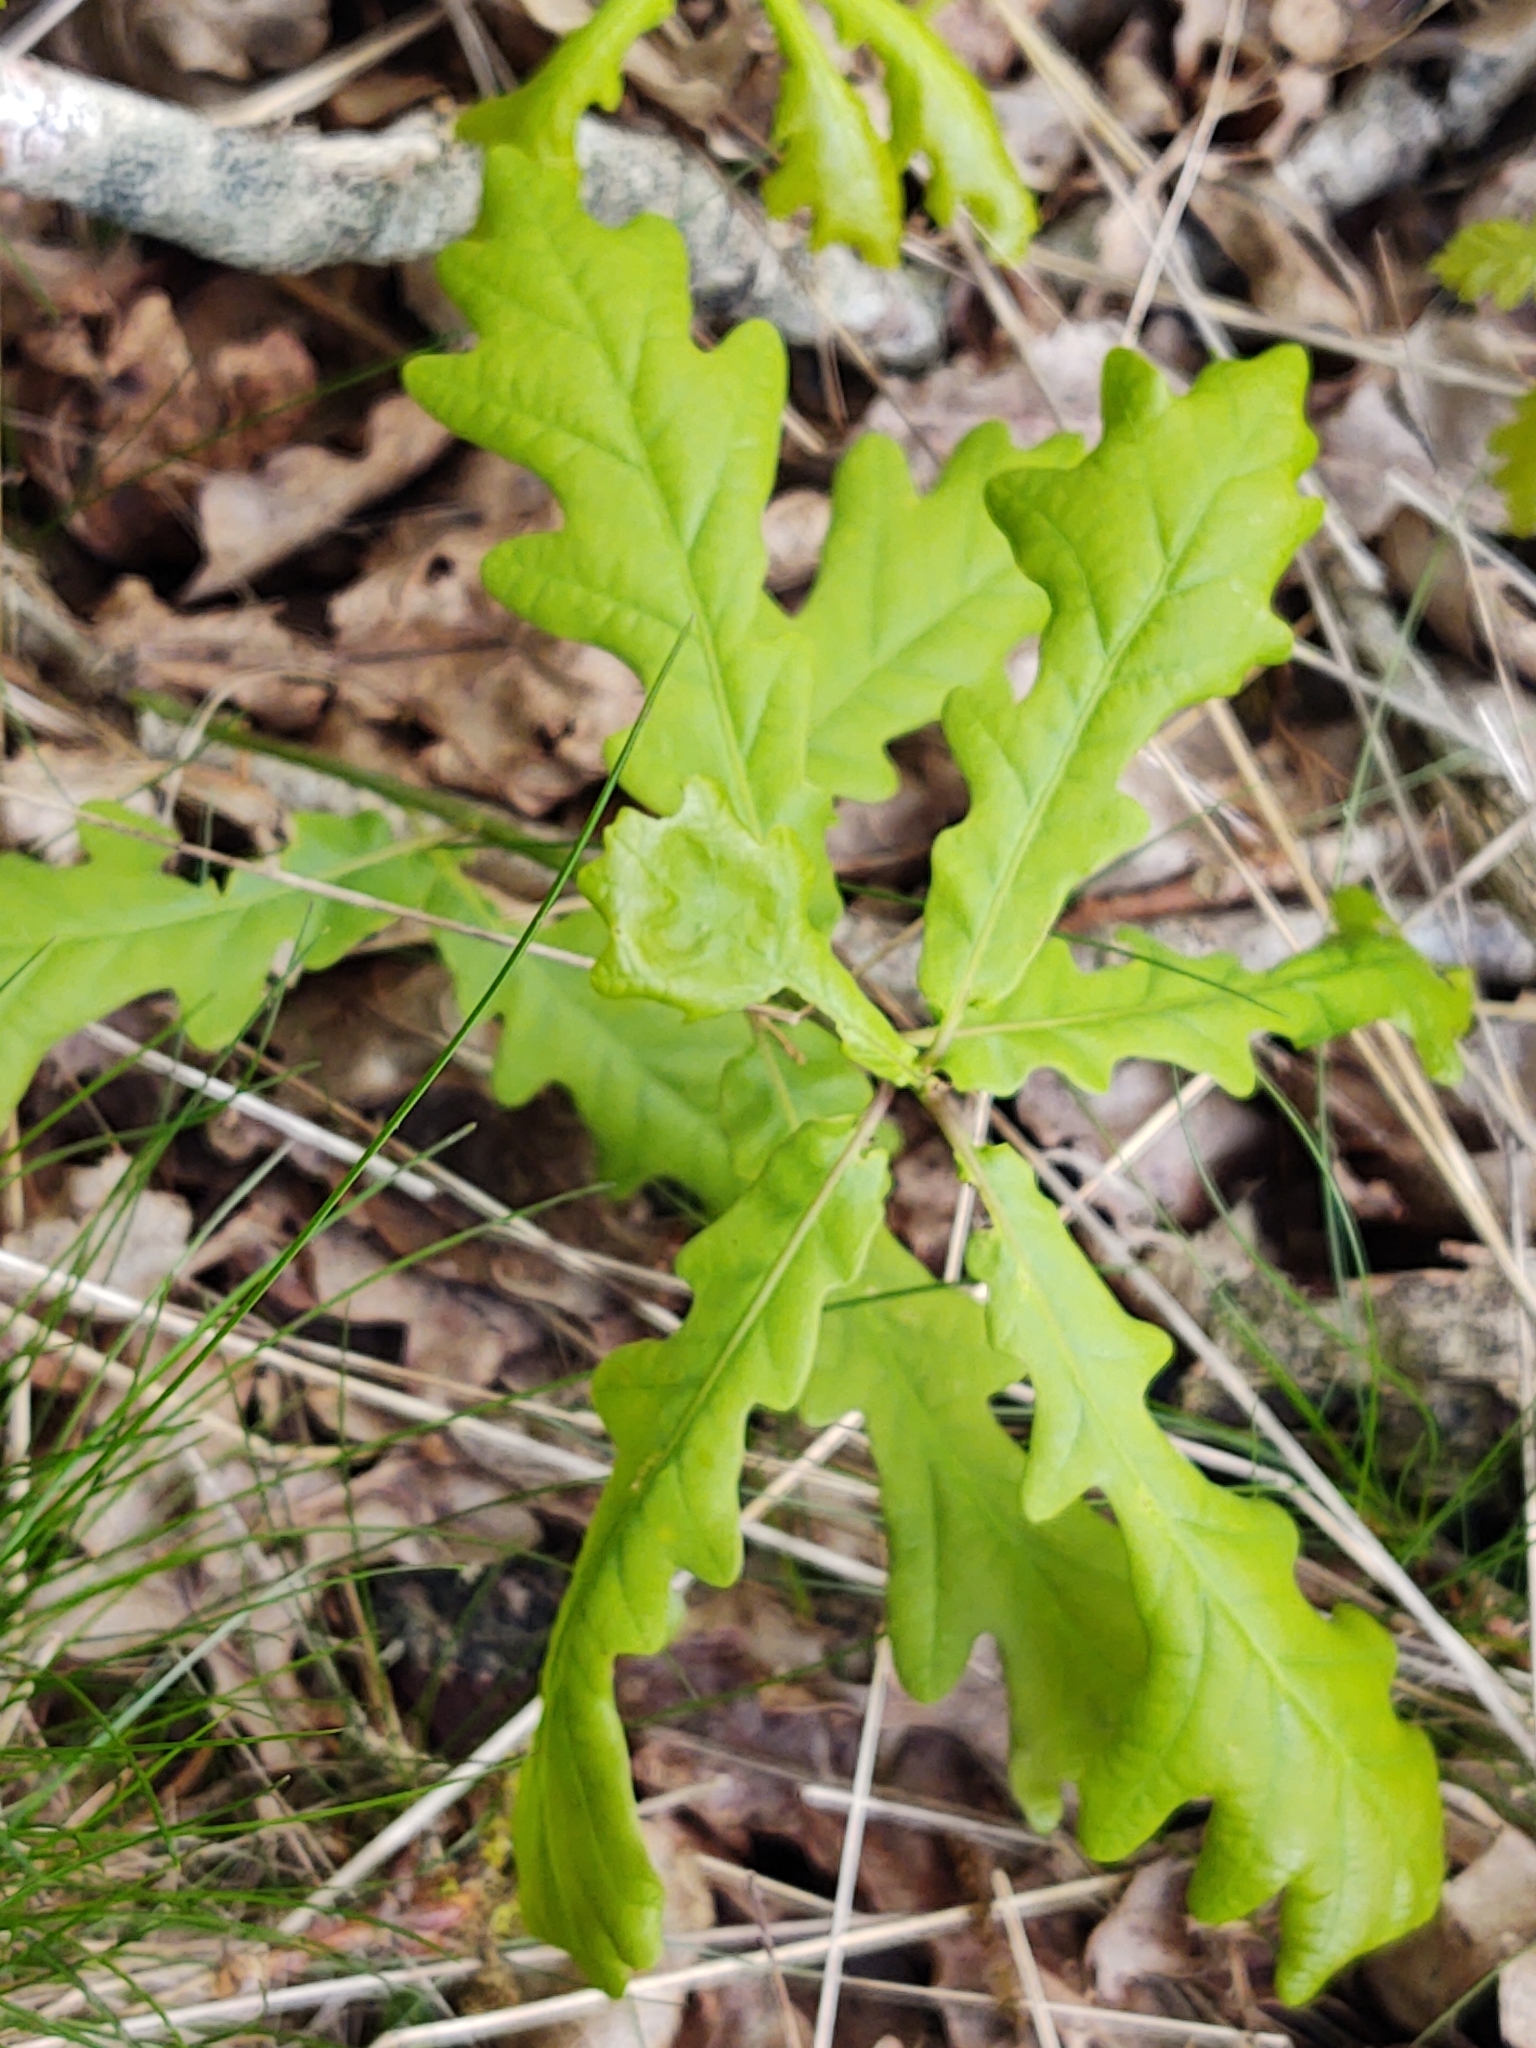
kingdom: Plantae
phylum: Tracheophyta
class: Magnoliopsida
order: Fagales
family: Fagaceae
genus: Quercus
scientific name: Quercus robur
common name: Pedunculate oak
